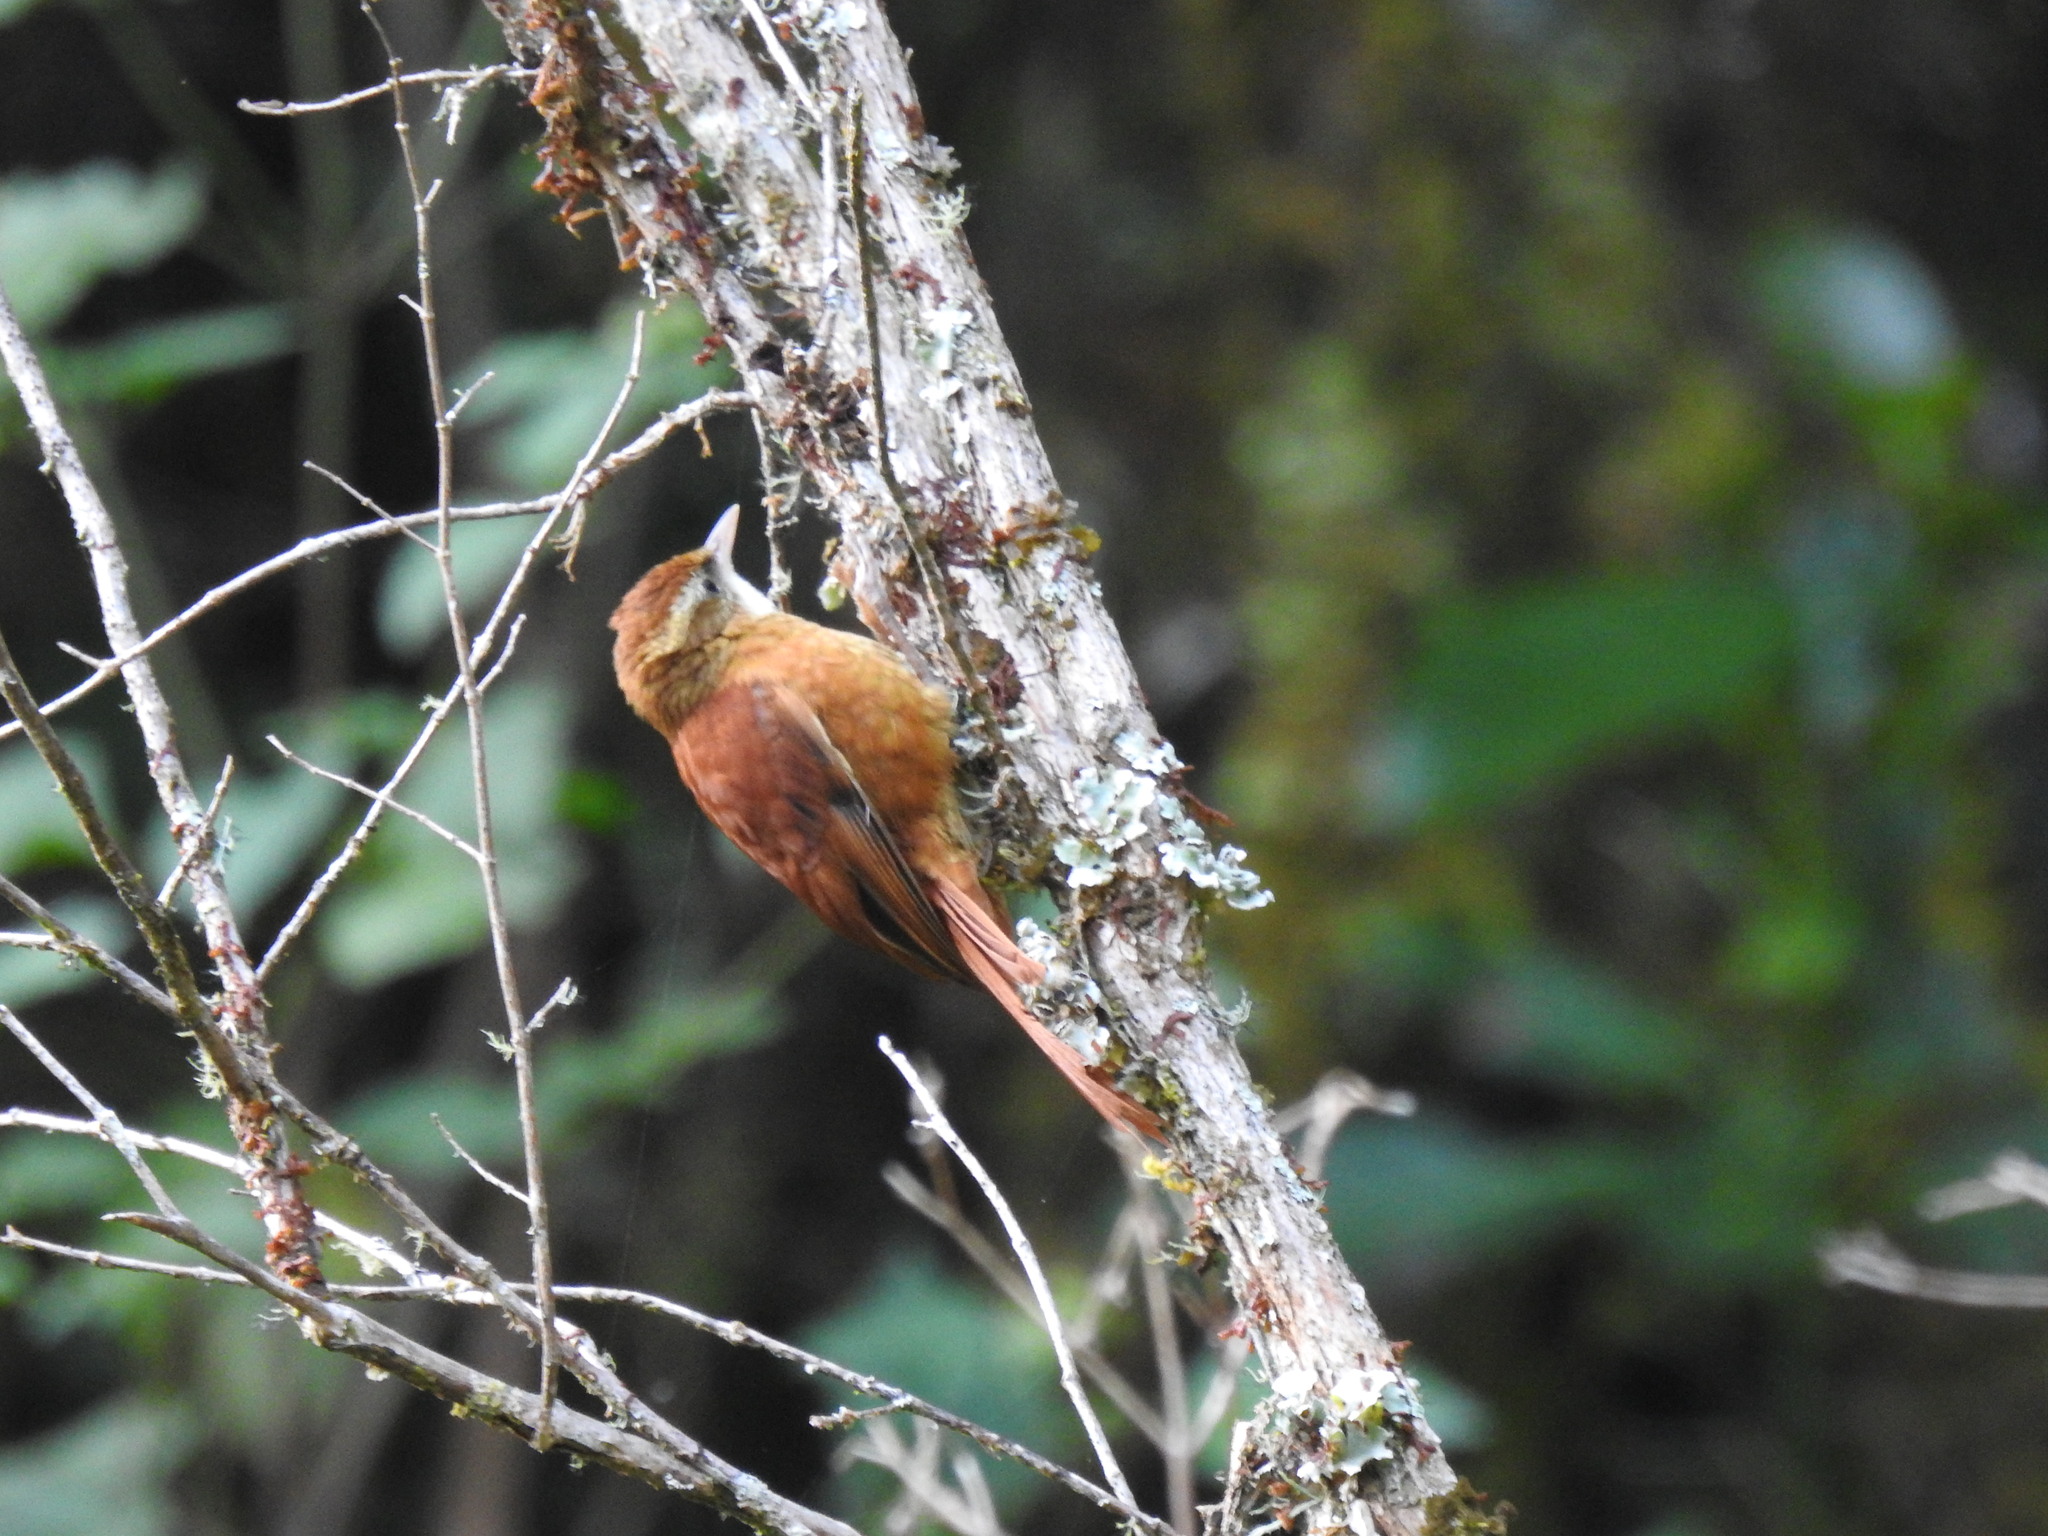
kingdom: Animalia
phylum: Chordata
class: Aves
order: Passeriformes
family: Furnariidae
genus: Margarornis
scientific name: Margarornis rubiginosus
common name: Ruddy treerunner
